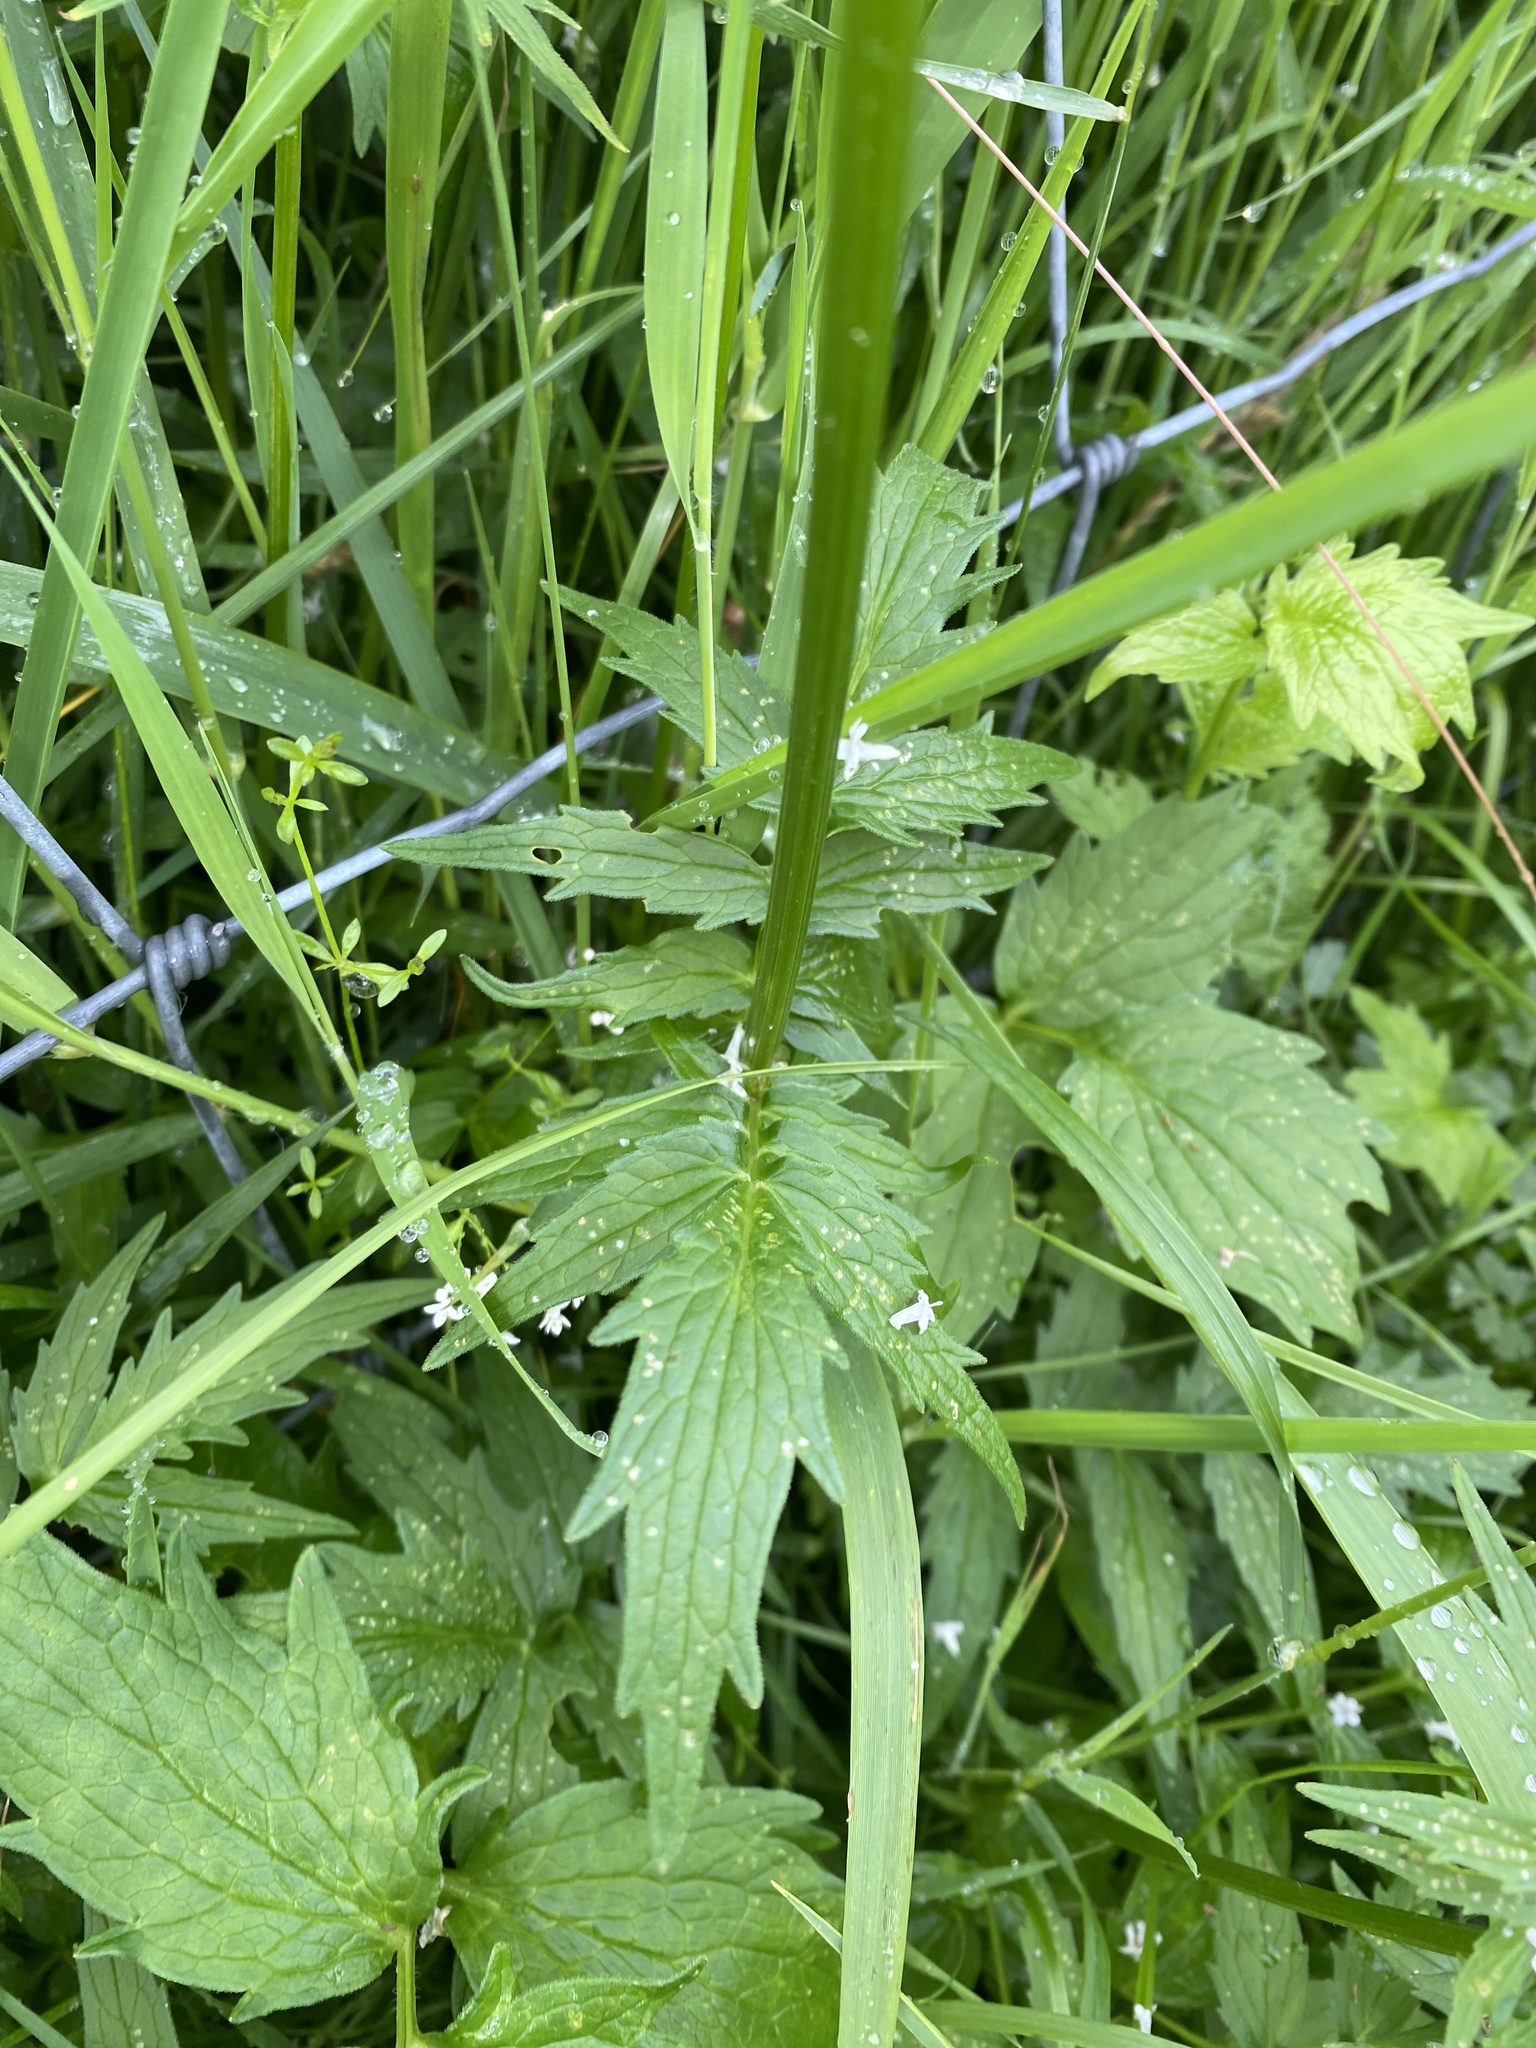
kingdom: Plantae
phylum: Tracheophyta
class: Magnoliopsida
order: Dipsacales
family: Caprifoliaceae
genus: Valeriana
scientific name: Valeriana officinalis
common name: Common valerian
